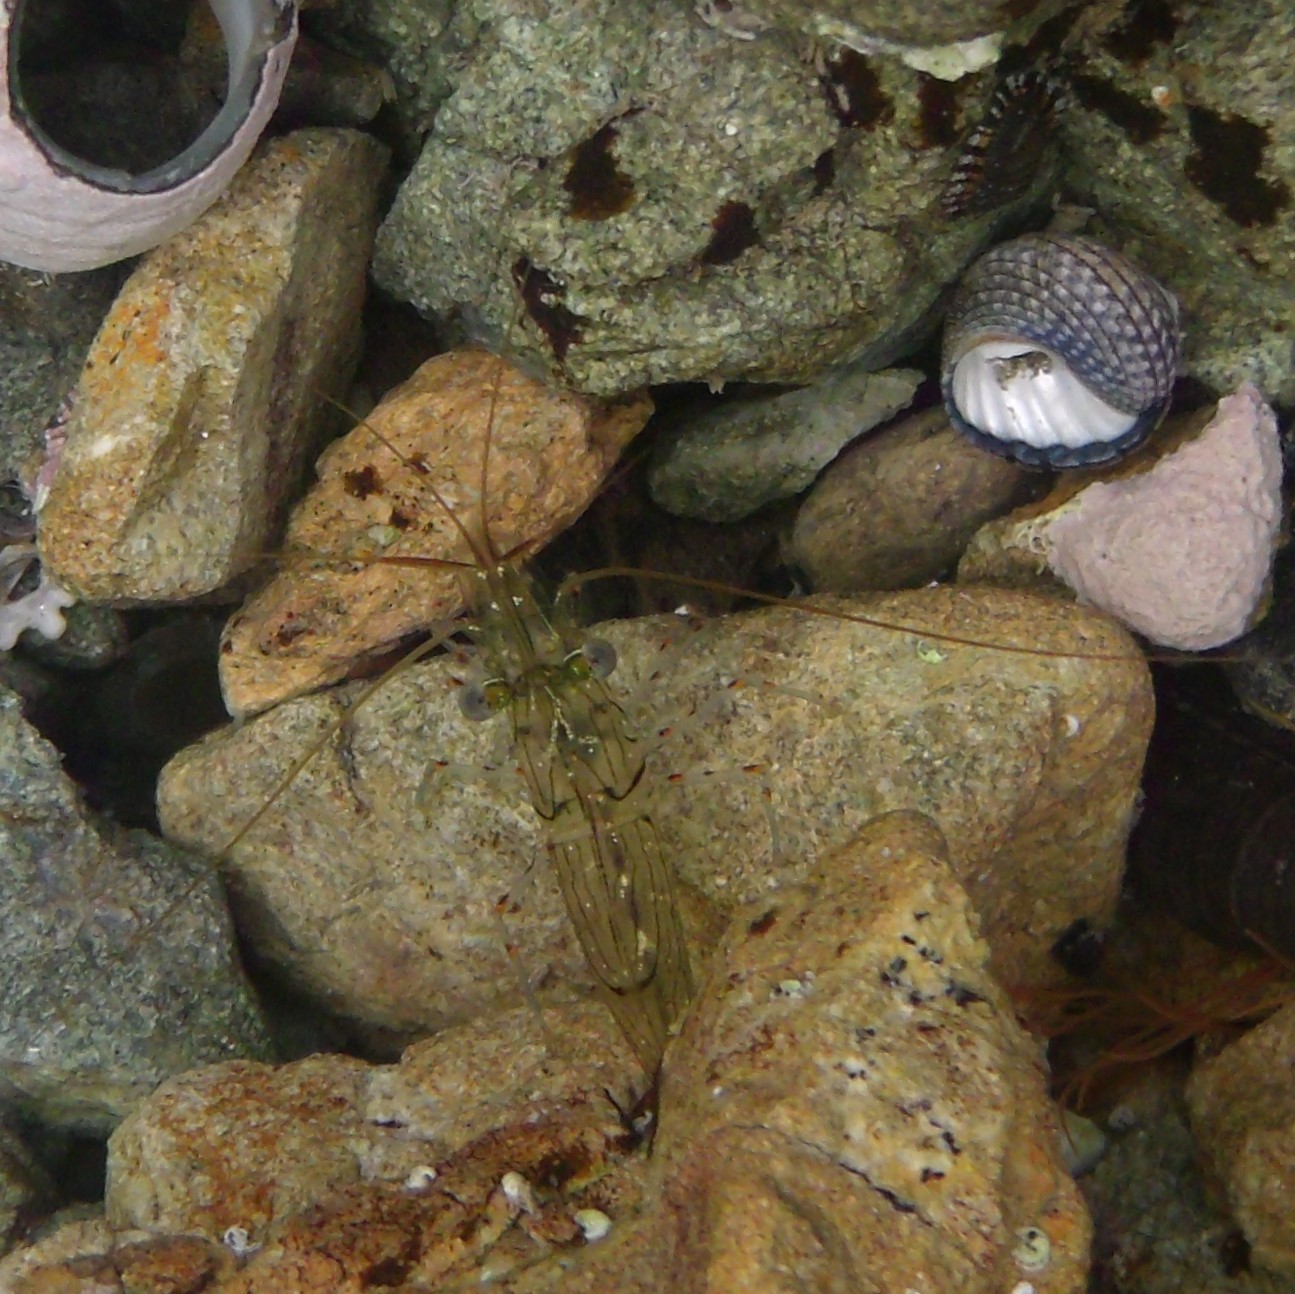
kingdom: Animalia
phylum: Arthropoda
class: Malacostraca
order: Decapoda
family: Palaemonidae
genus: Palaemon
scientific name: Palaemon affinis
